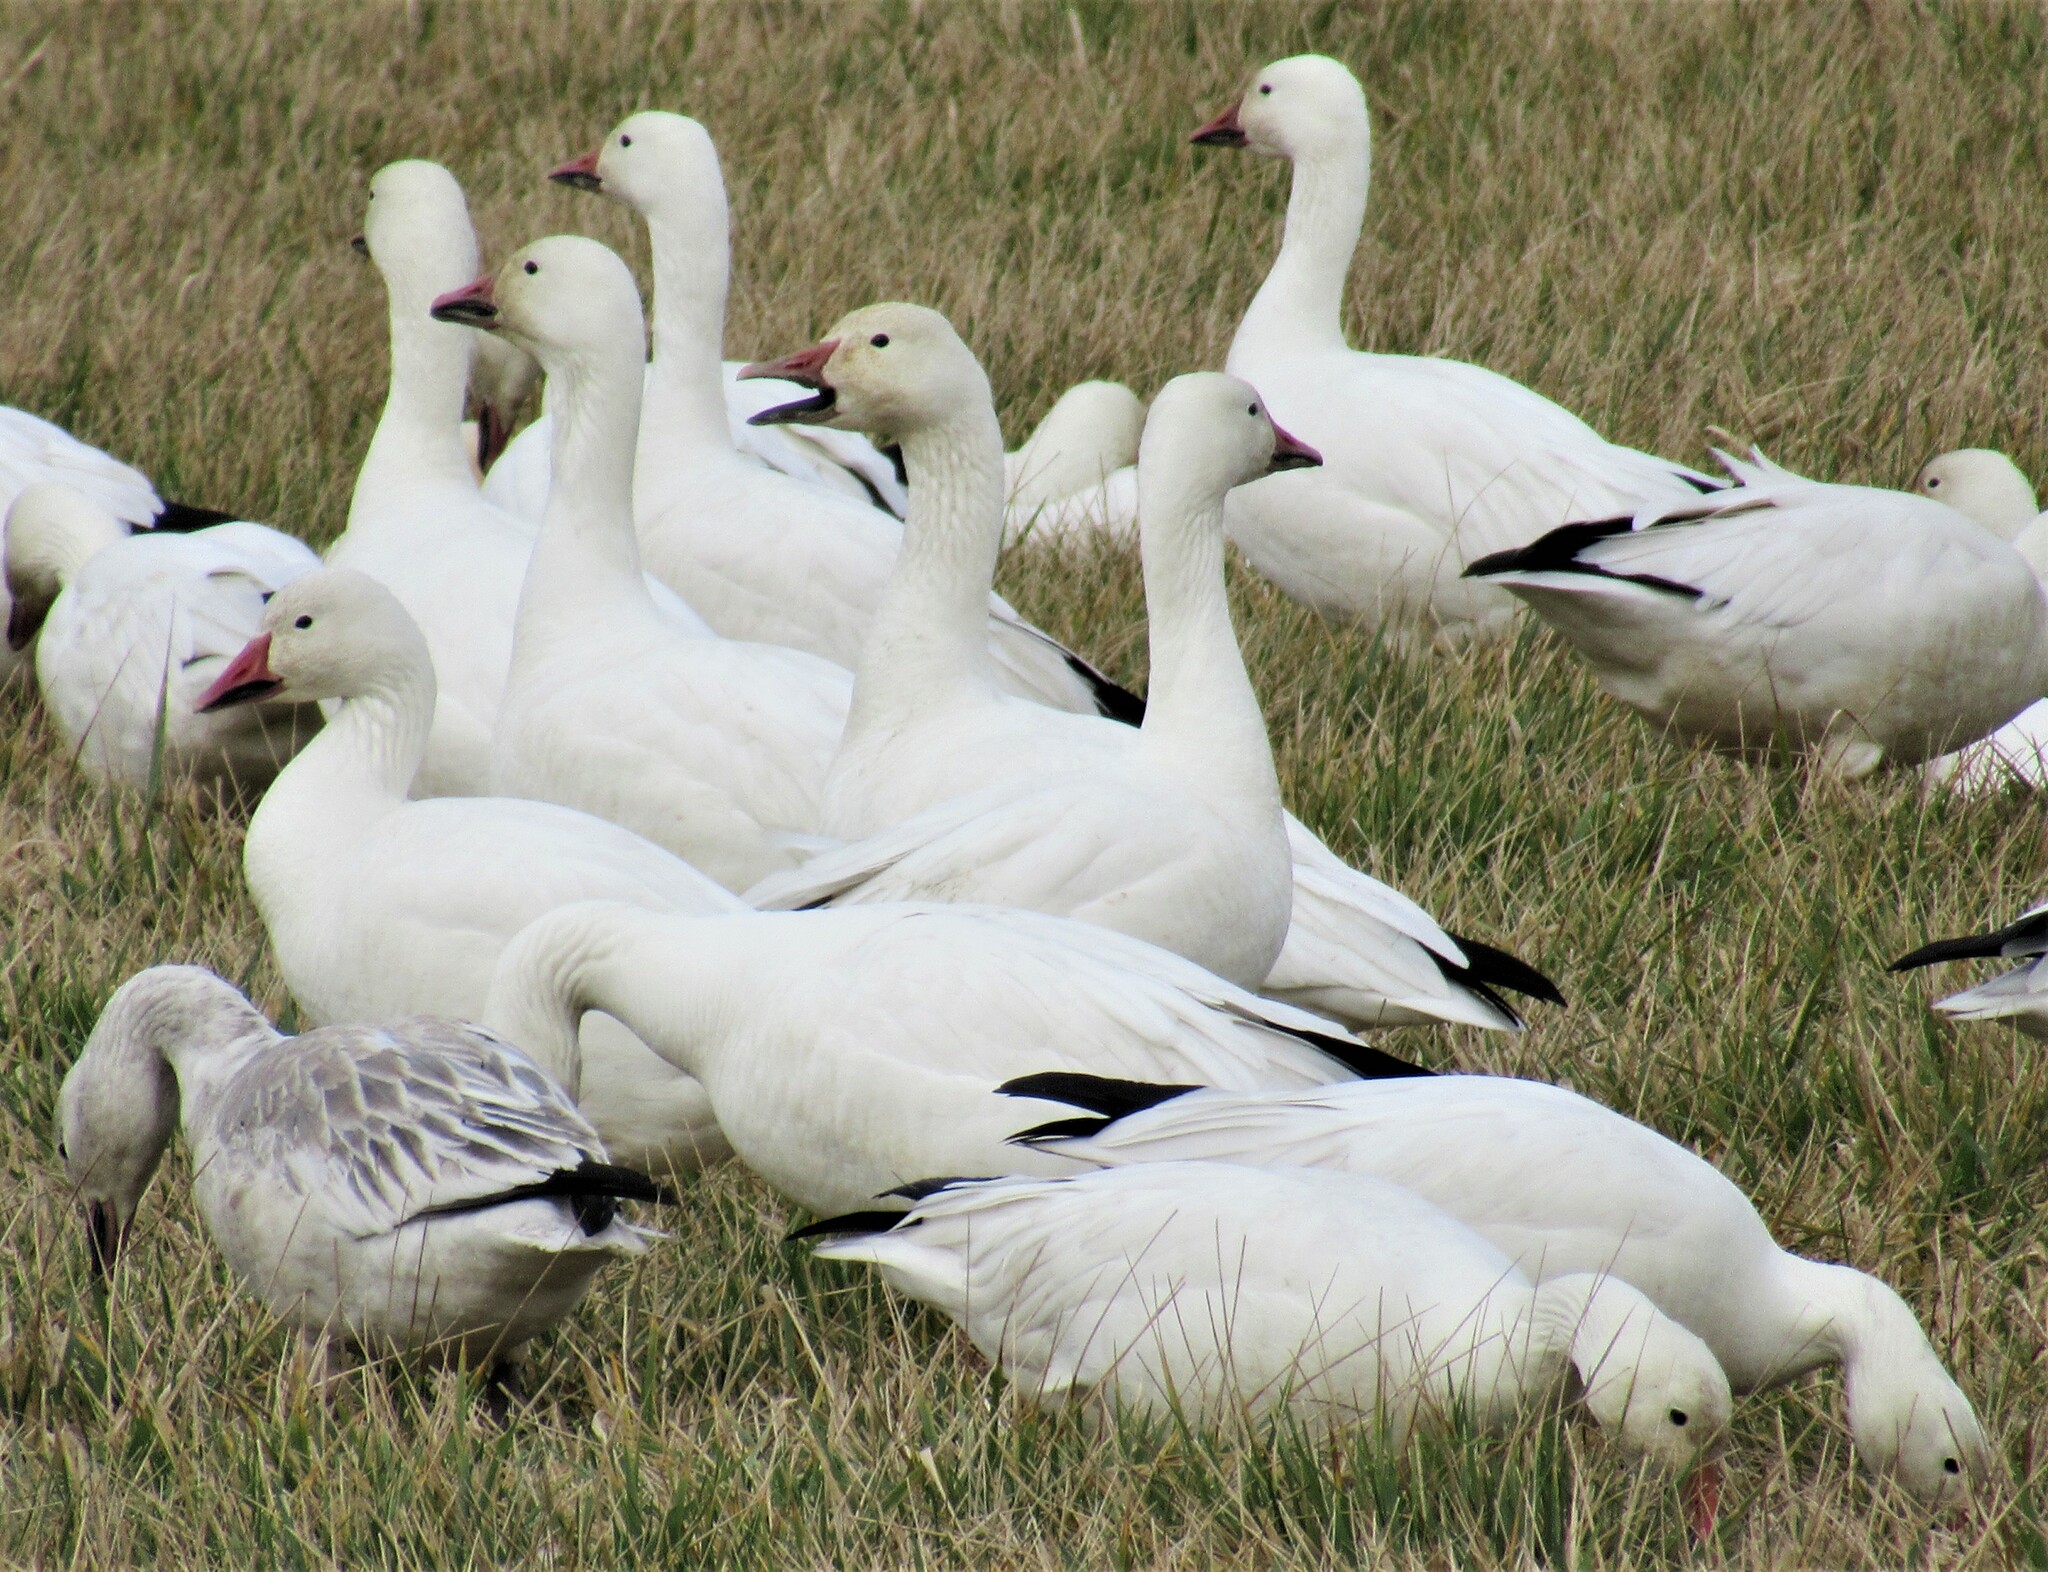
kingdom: Animalia
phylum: Chordata
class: Aves
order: Anseriformes
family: Anatidae
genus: Anser
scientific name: Anser caerulescens
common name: Snow goose
